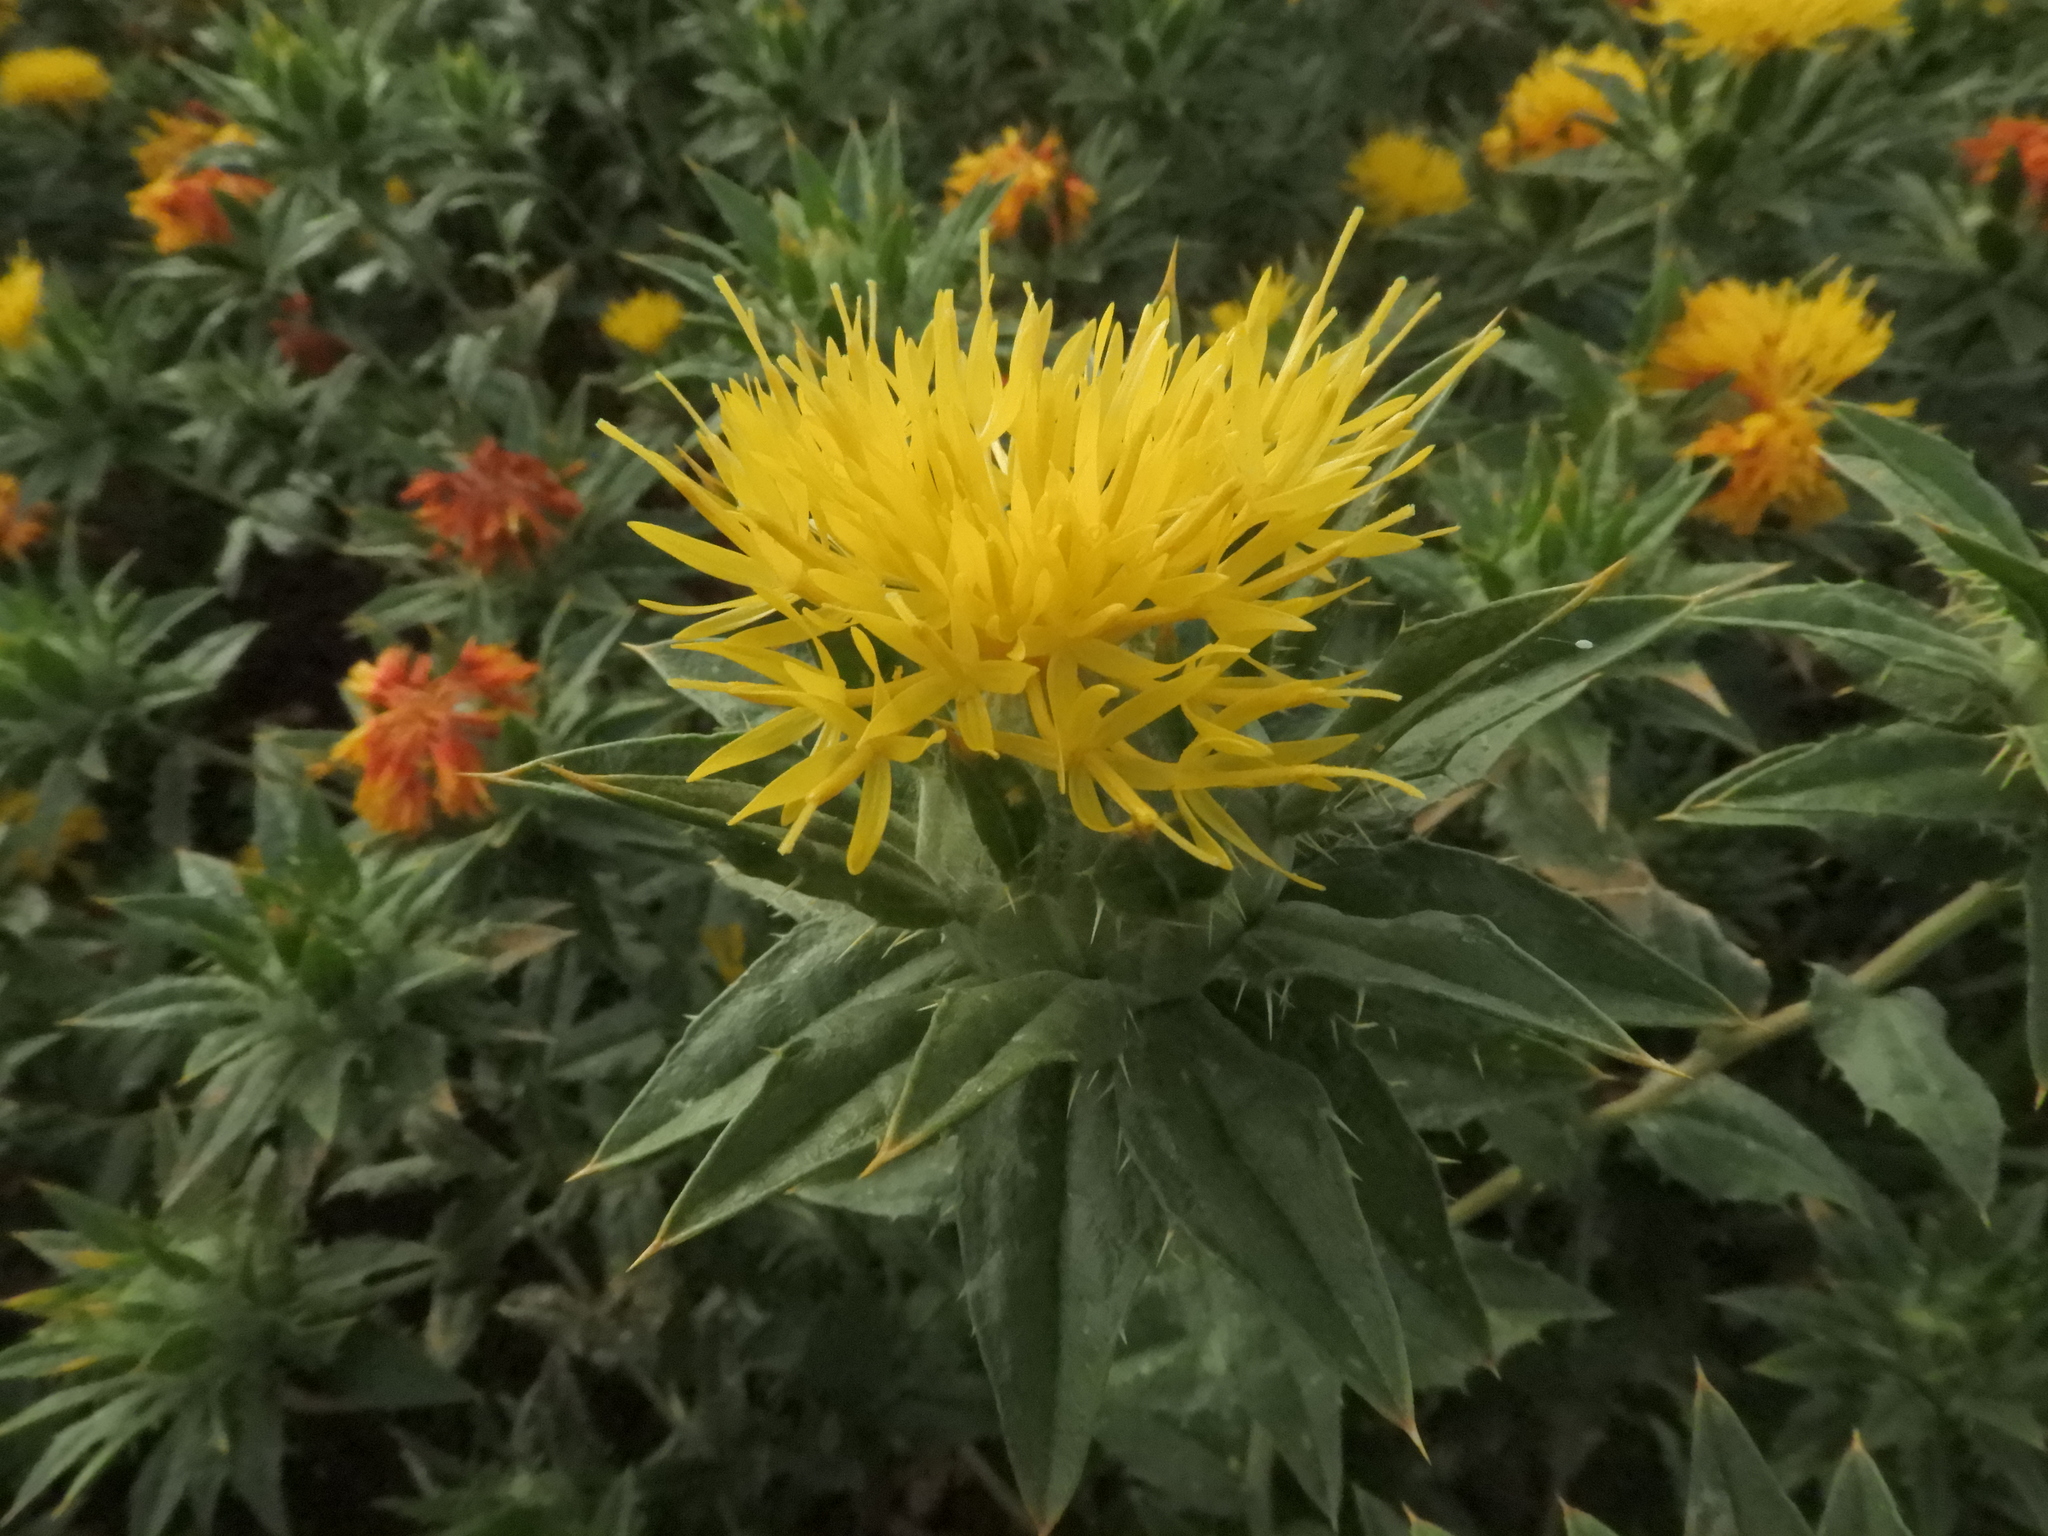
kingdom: Plantae
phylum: Tracheophyta
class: Magnoliopsida
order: Asterales
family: Asteraceae
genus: Carthamus
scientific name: Carthamus tinctorius
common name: Safflower
